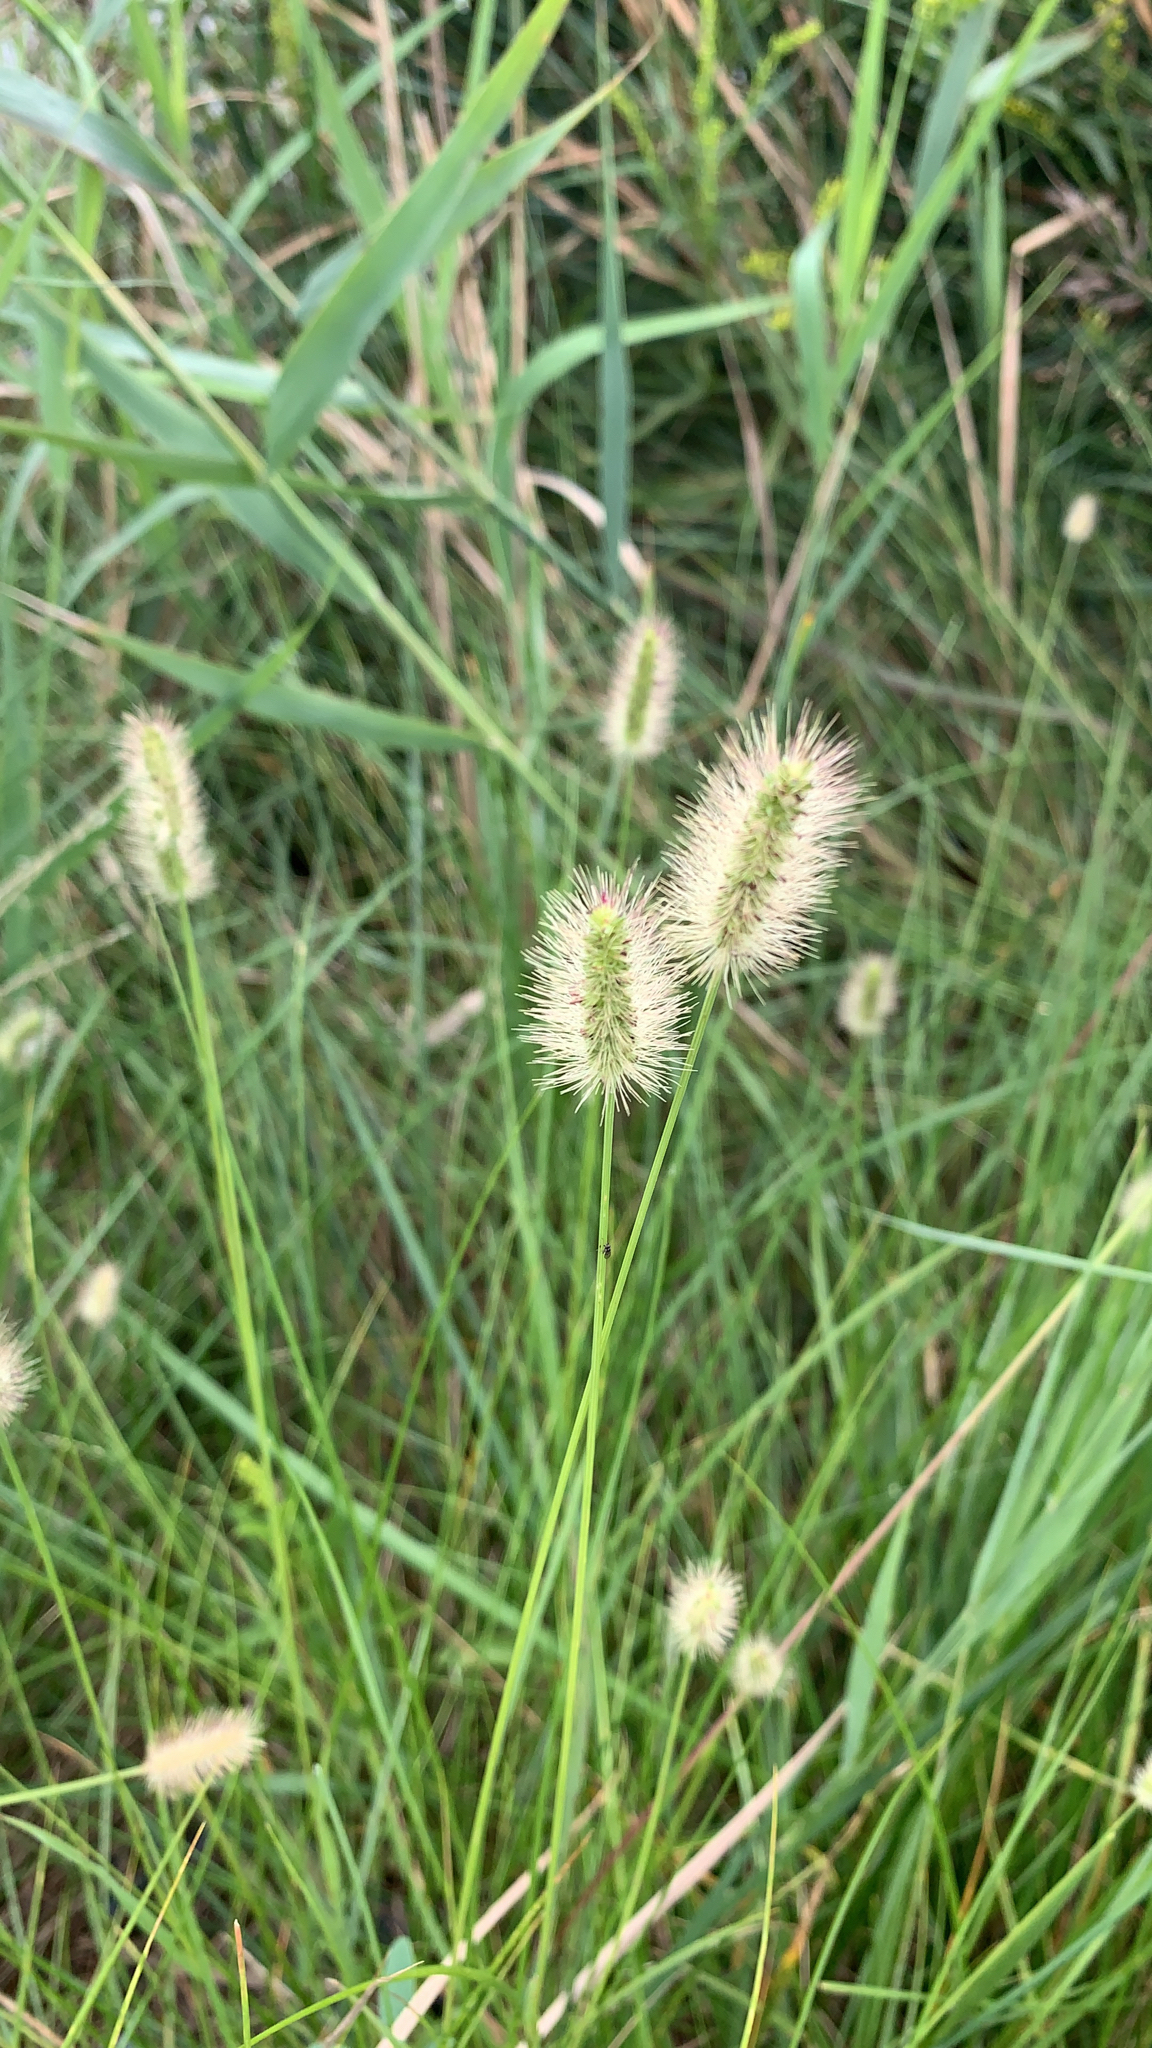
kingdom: Plantae
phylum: Tracheophyta
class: Liliopsida
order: Poales
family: Poaceae
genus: Setaria
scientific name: Setaria parviflora
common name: Knotroot bristle-grass
